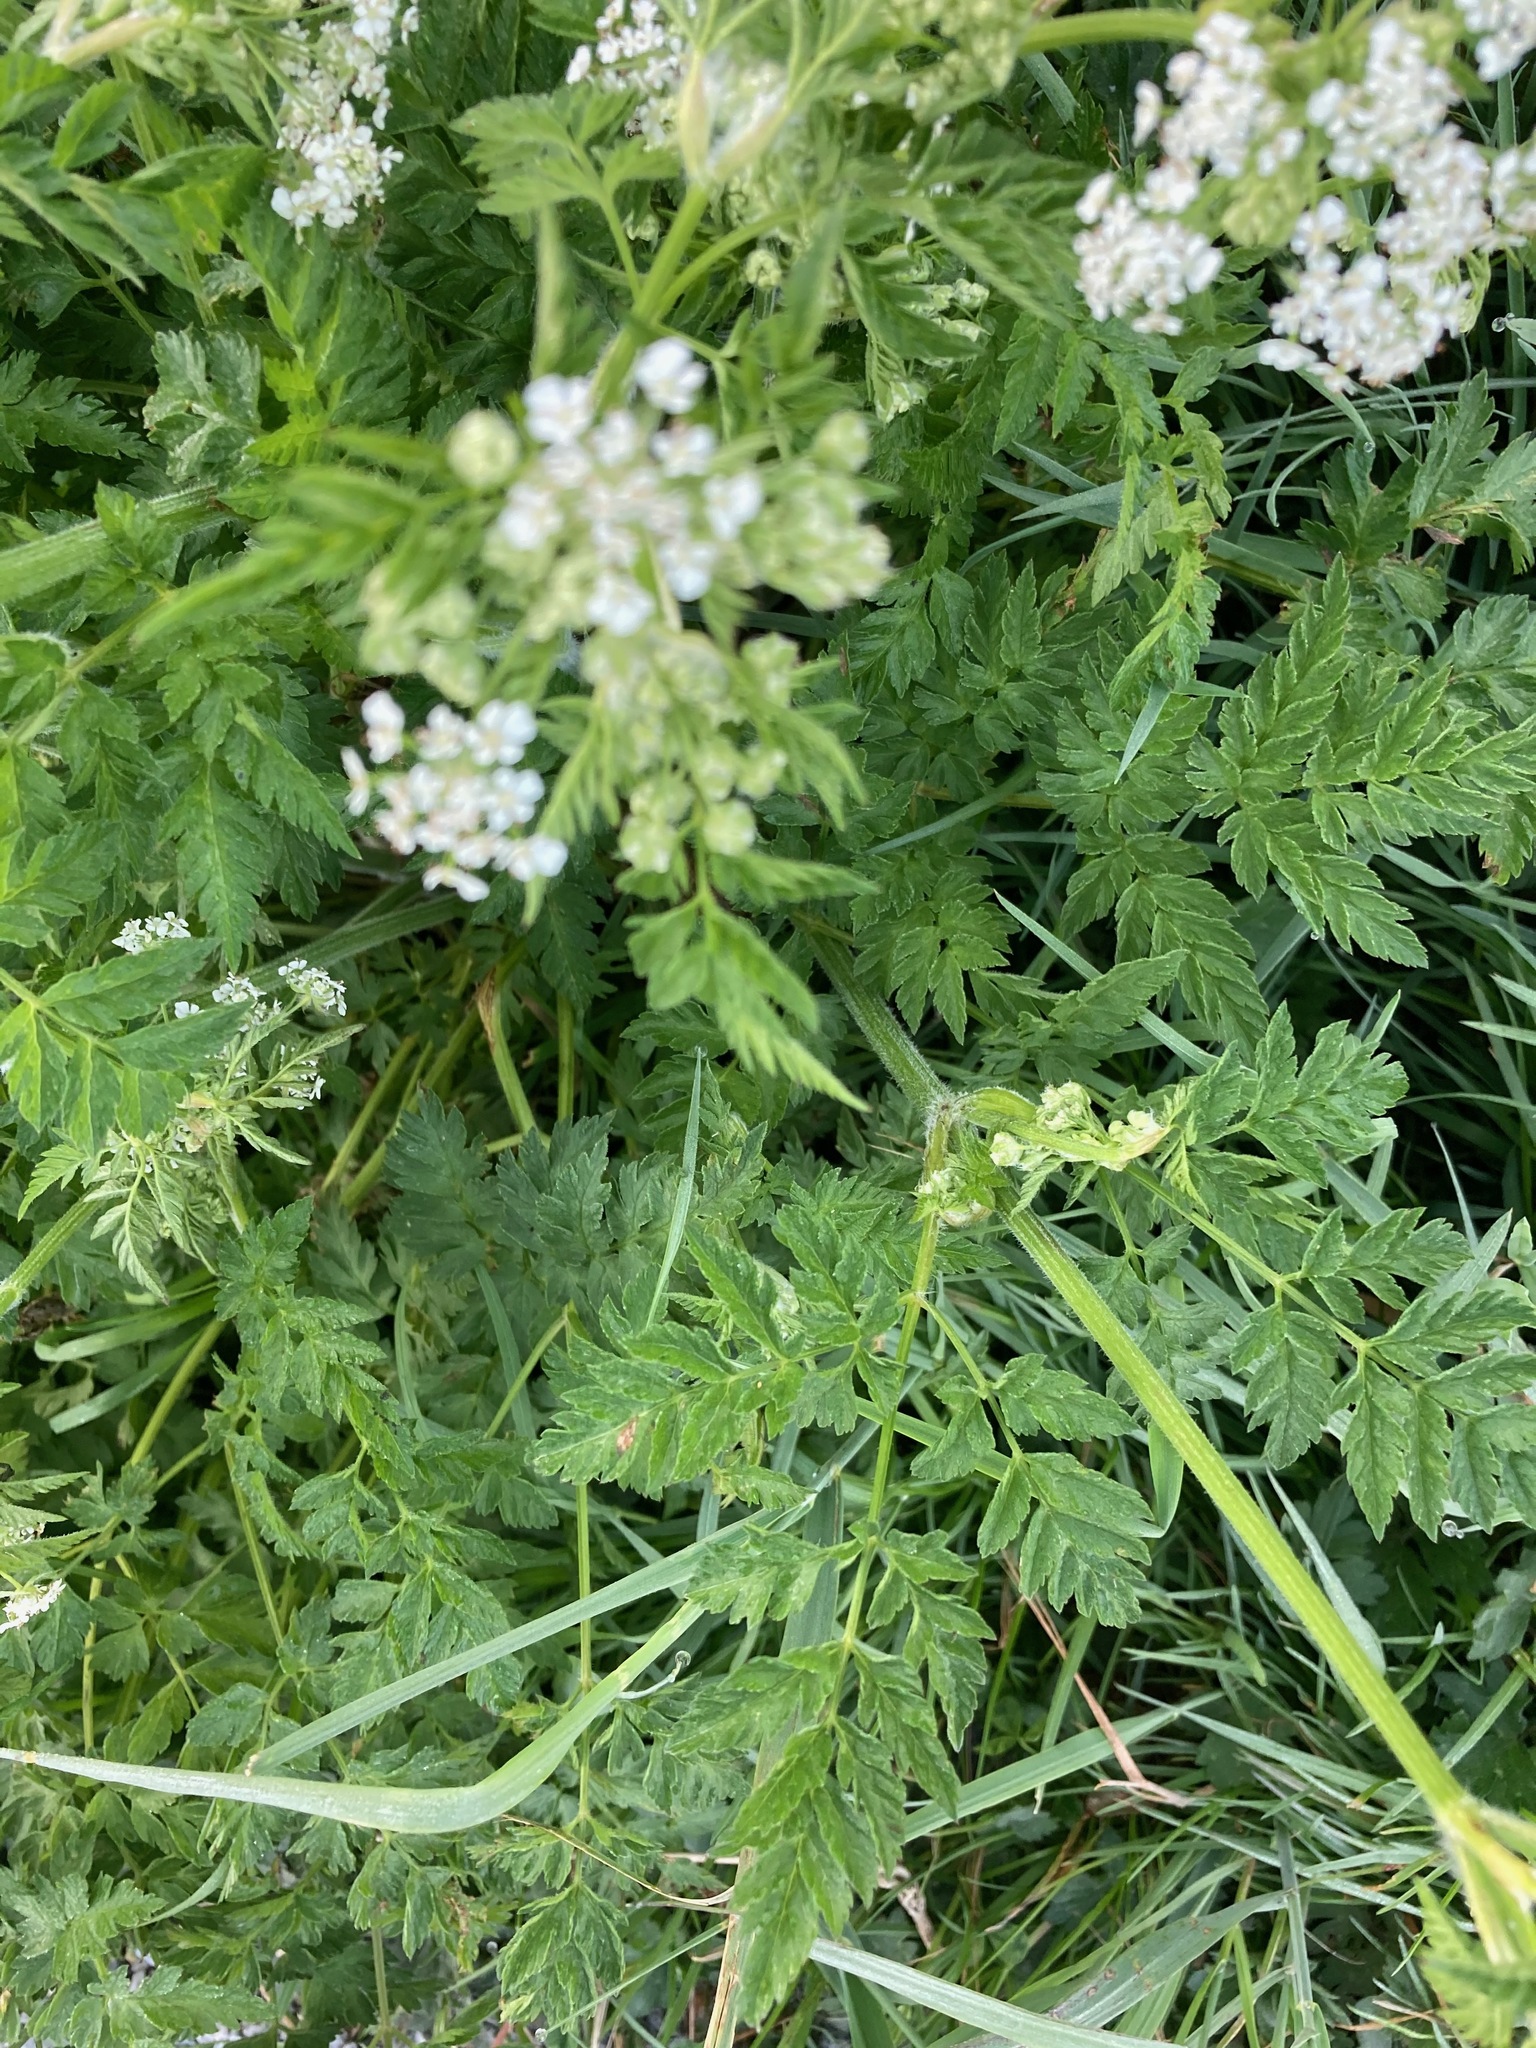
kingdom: Plantae
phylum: Tracheophyta
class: Magnoliopsida
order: Apiales
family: Apiaceae
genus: Anthriscus
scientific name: Anthriscus sylvestris
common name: Cow parsley
